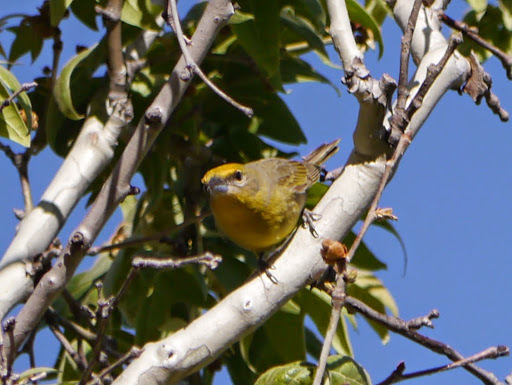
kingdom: Animalia
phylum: Chordata
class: Aves
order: Passeriformes
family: Cardinalidae
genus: Piranga
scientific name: Piranga flava
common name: Red tanager
